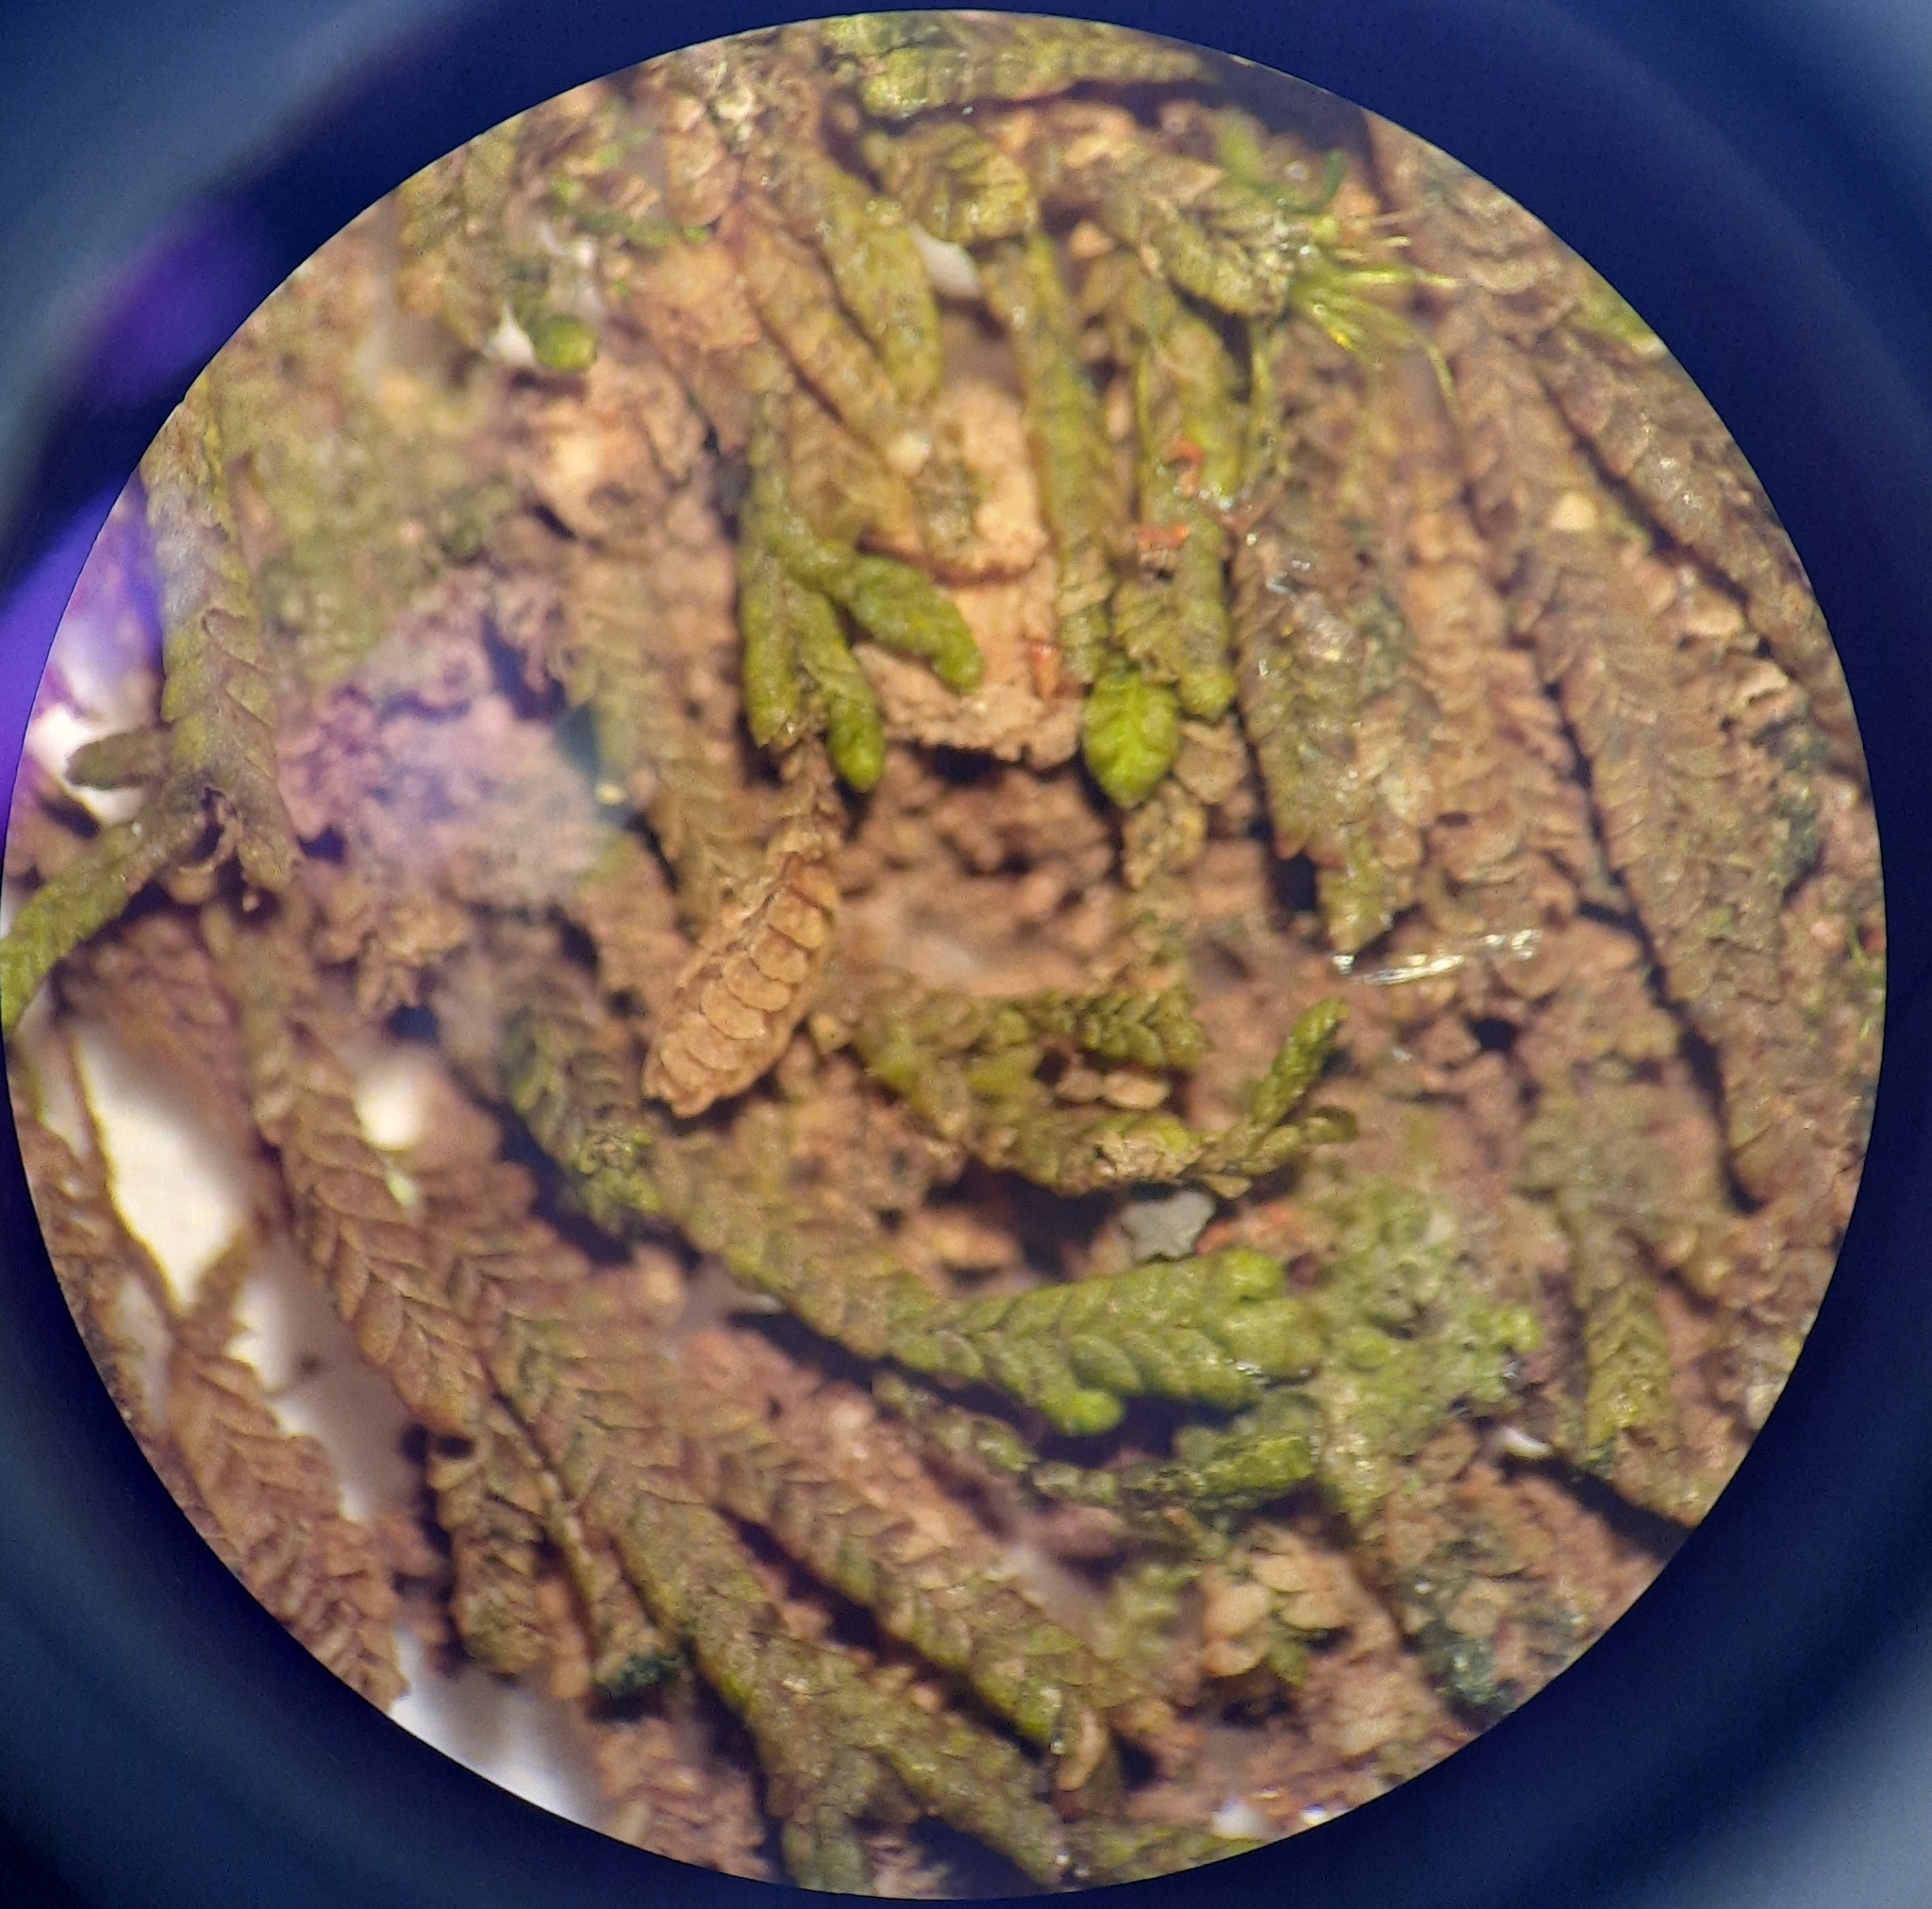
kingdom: Plantae
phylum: Marchantiophyta
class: Jungermanniopsida
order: Porellales
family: Lejeuneaceae
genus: Thysananthus
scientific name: Thysananthus anguiformis
